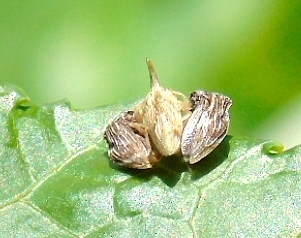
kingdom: Animalia
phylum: Arthropoda
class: Insecta
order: Hemiptera
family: Membracidae
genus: Entylia
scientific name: Entylia
